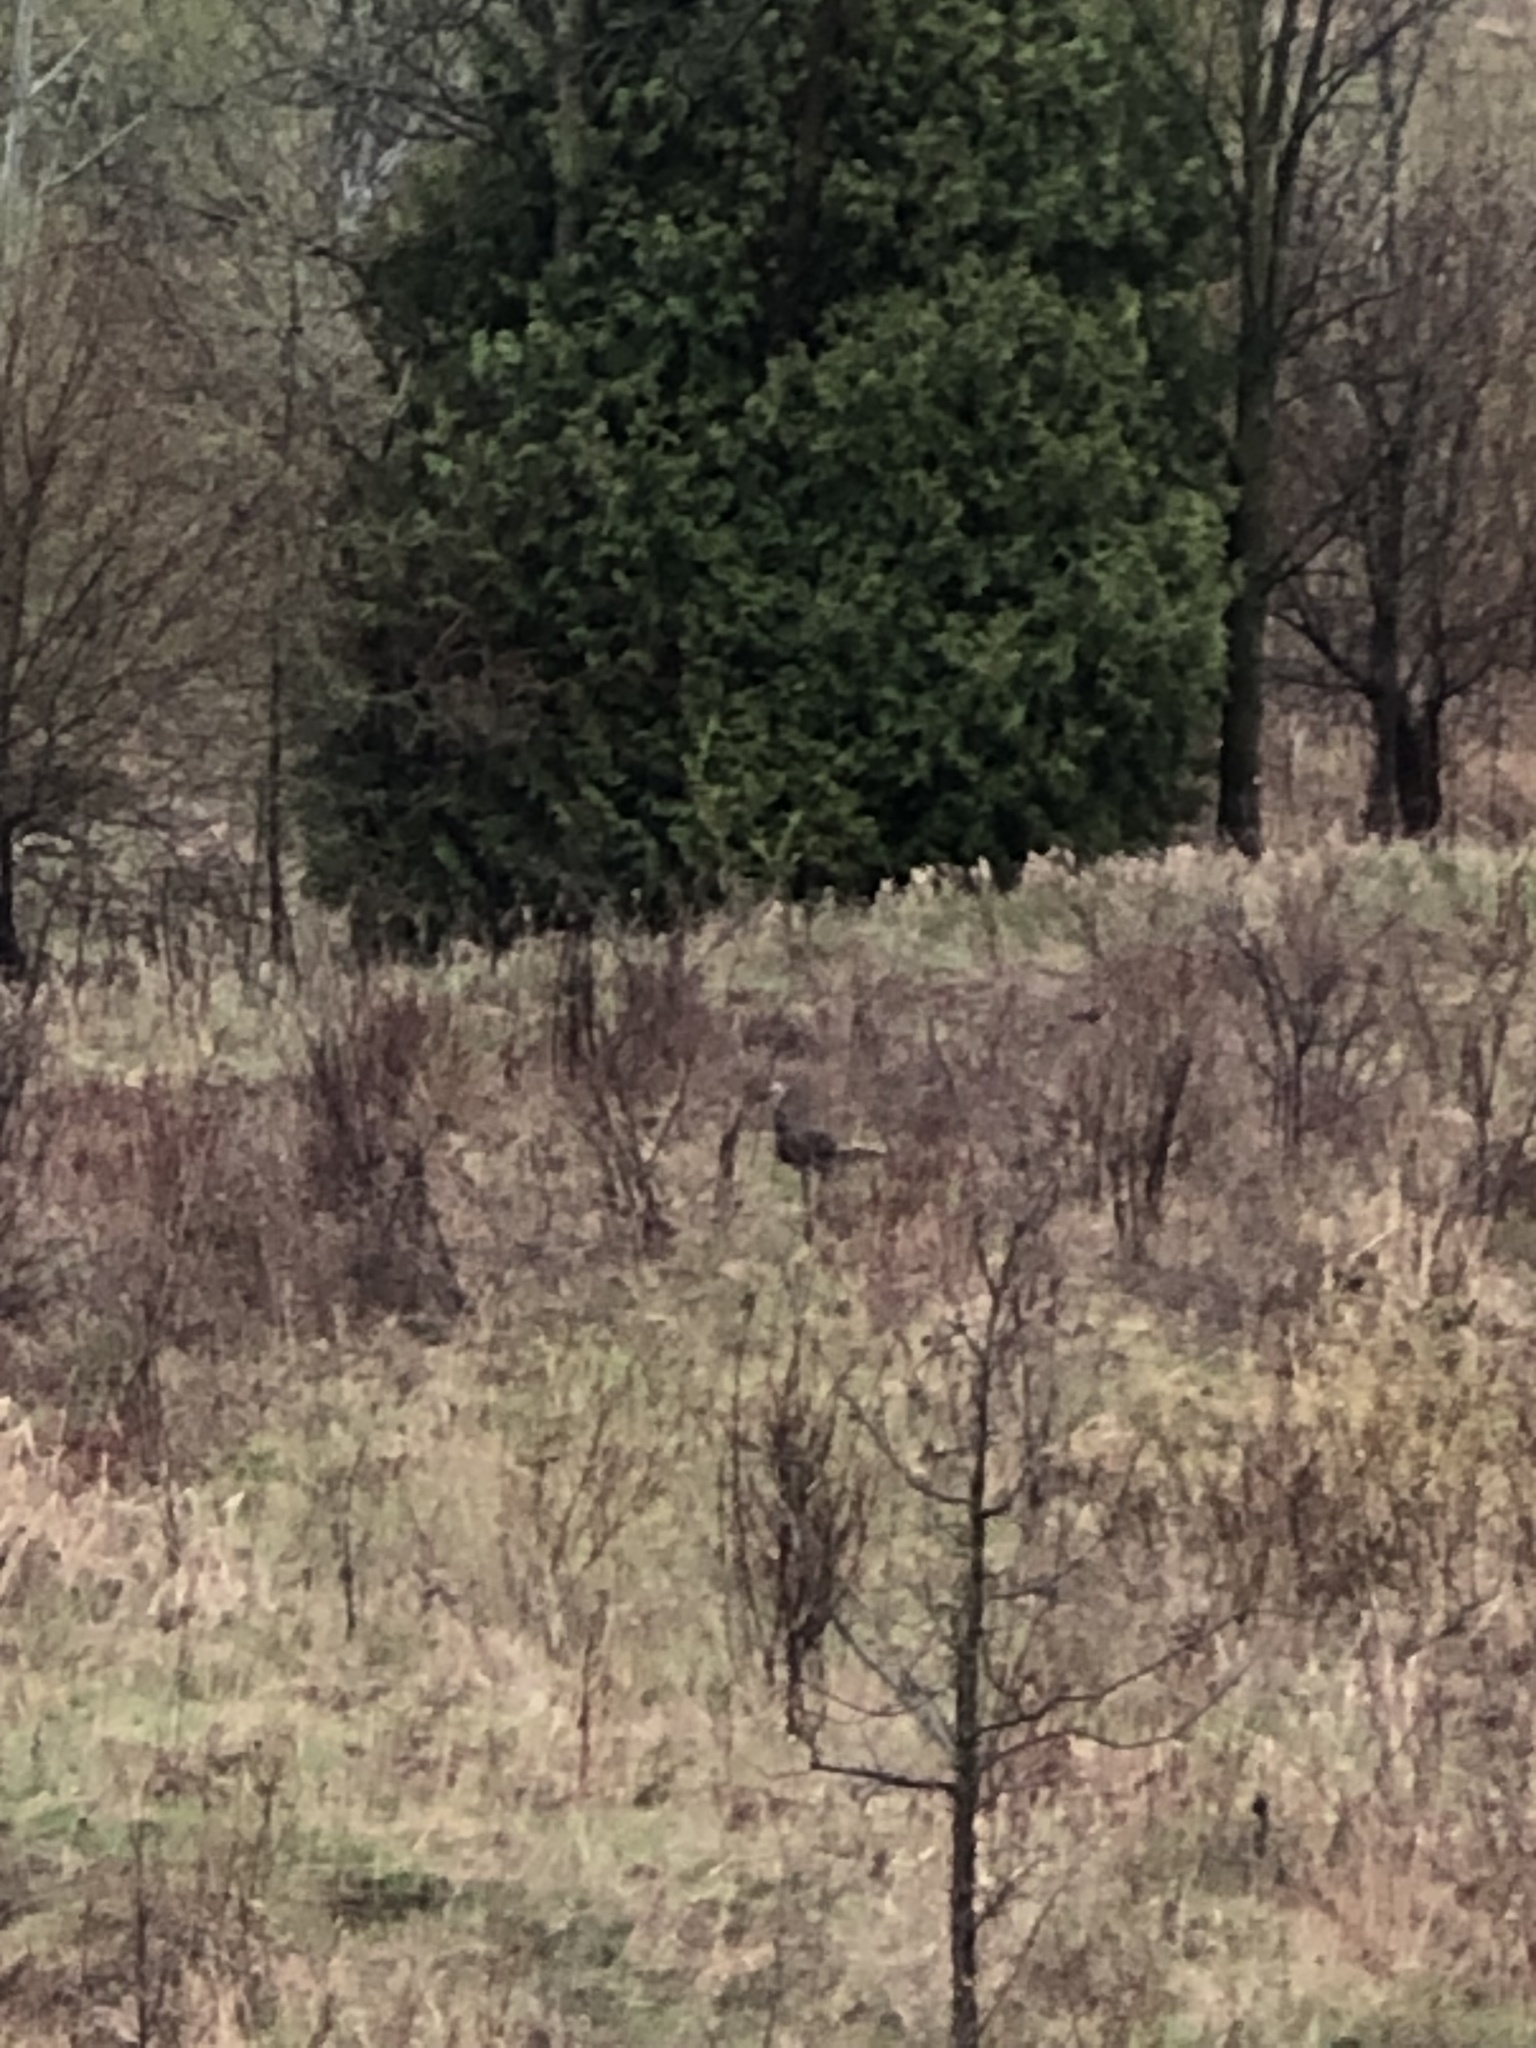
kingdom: Animalia
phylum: Chordata
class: Aves
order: Galliformes
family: Phasianidae
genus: Meleagris
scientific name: Meleagris gallopavo
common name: Wild turkey
